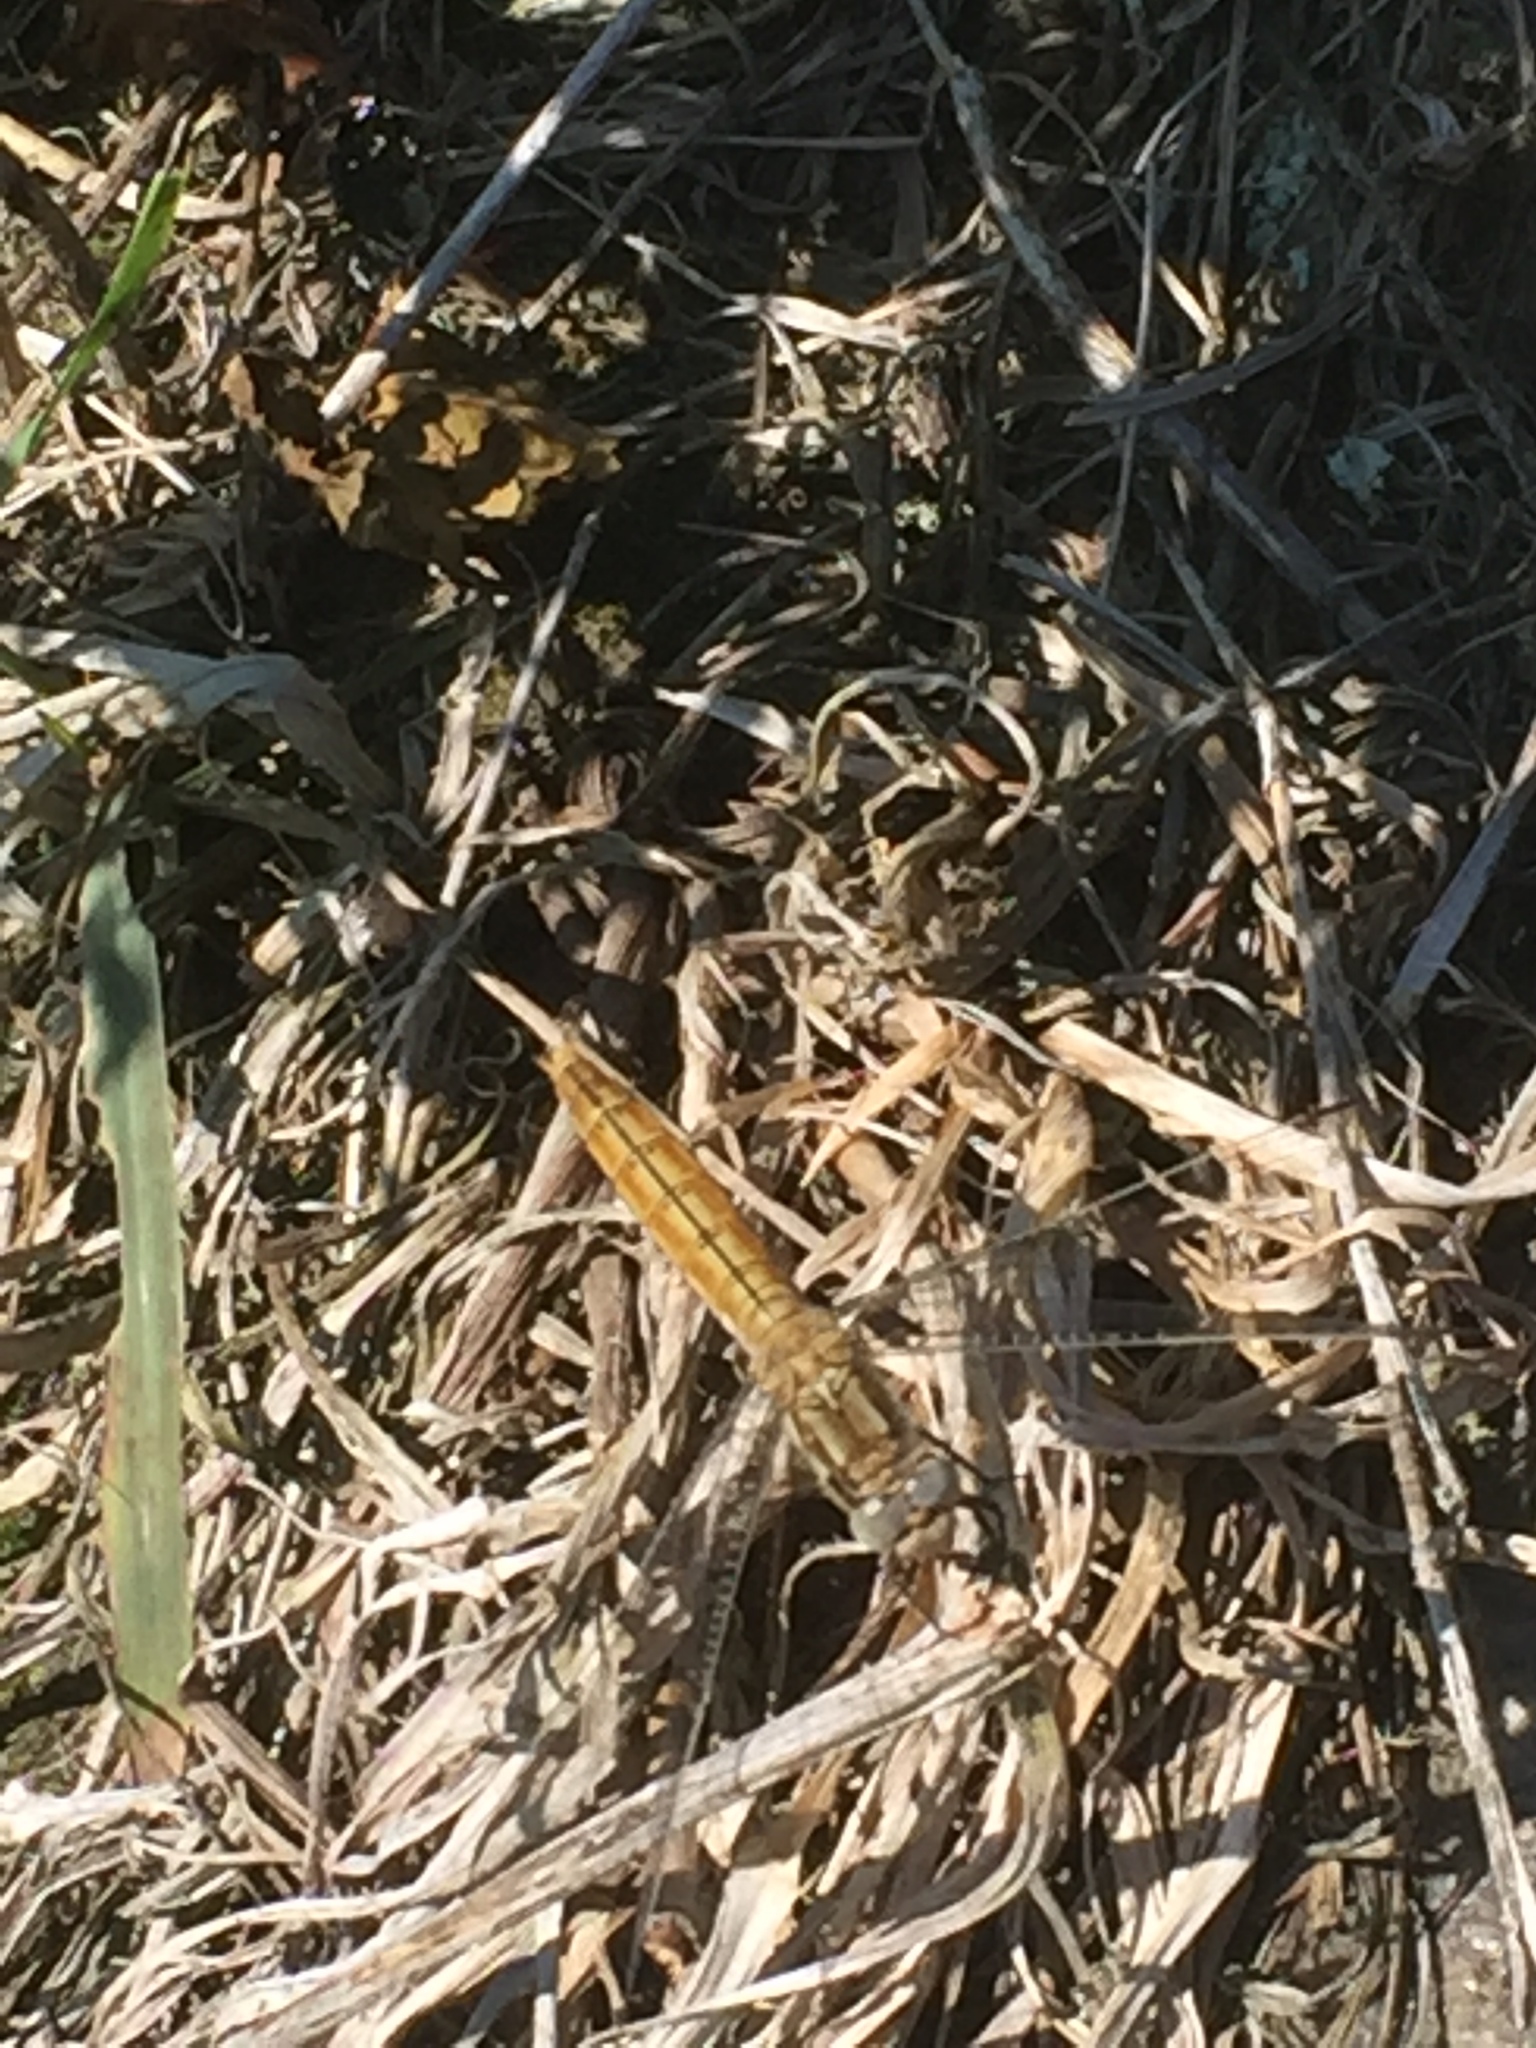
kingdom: Animalia
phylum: Arthropoda
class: Insecta
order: Odonata
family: Libellulidae
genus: Crocothemis
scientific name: Crocothemis erythraea
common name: Scarlet dragonfly
